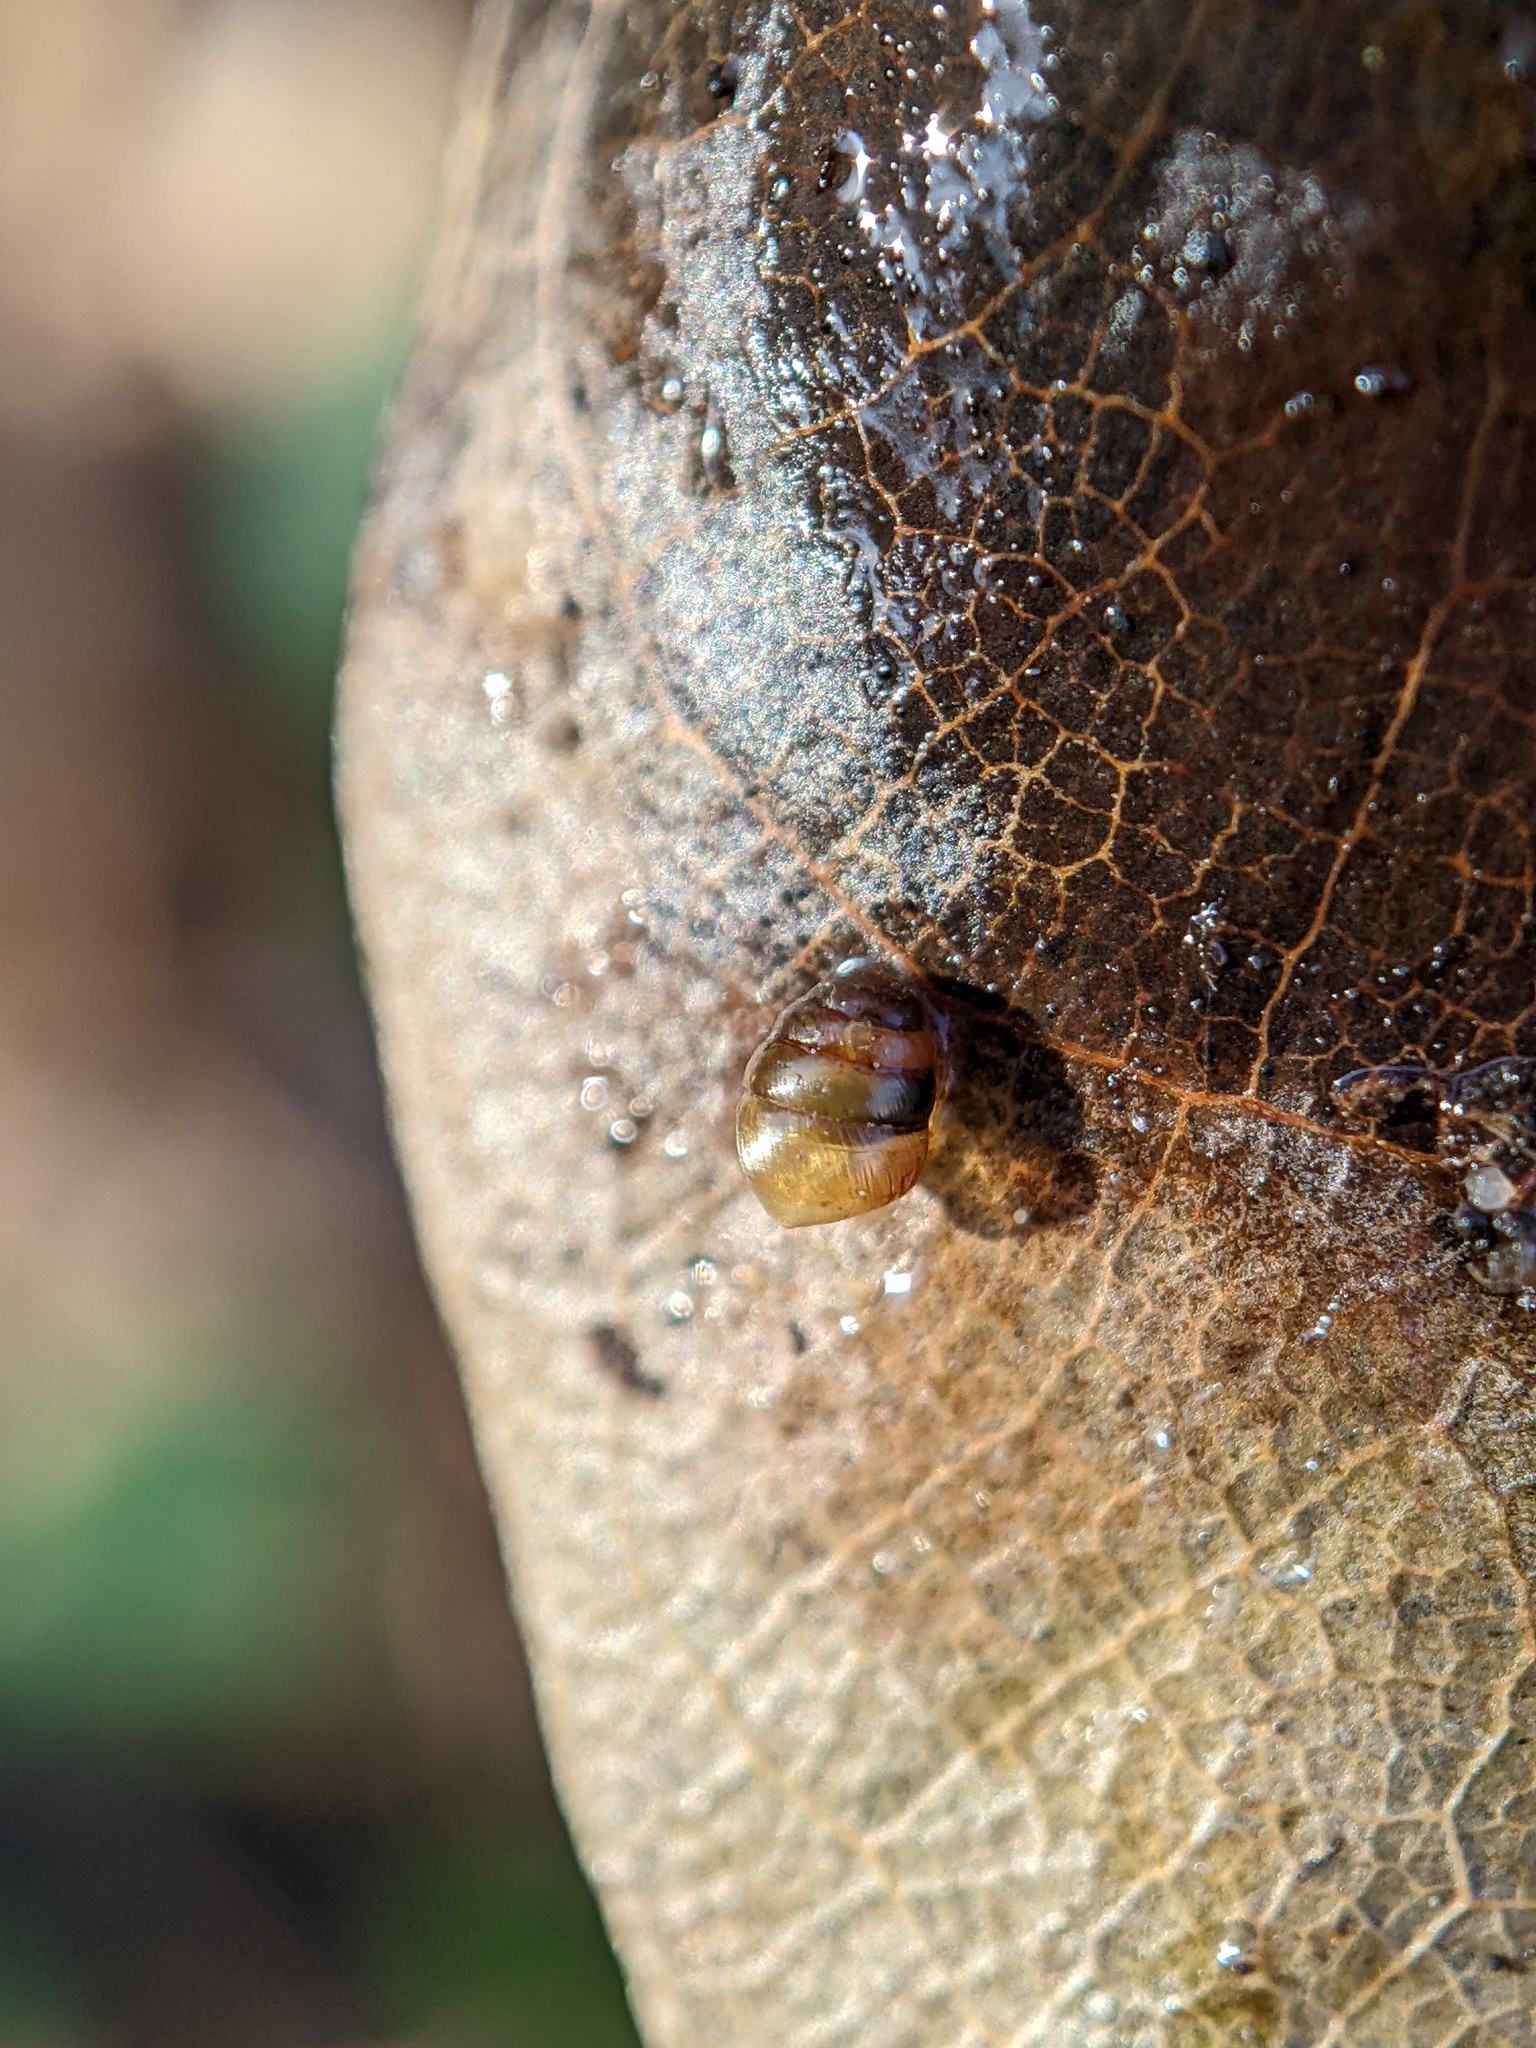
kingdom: Animalia
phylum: Mollusca
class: Gastropoda
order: Stylommatophora
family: Lauriidae
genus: Lauria
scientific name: Lauria cylindracea
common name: Common chrysalis snail
